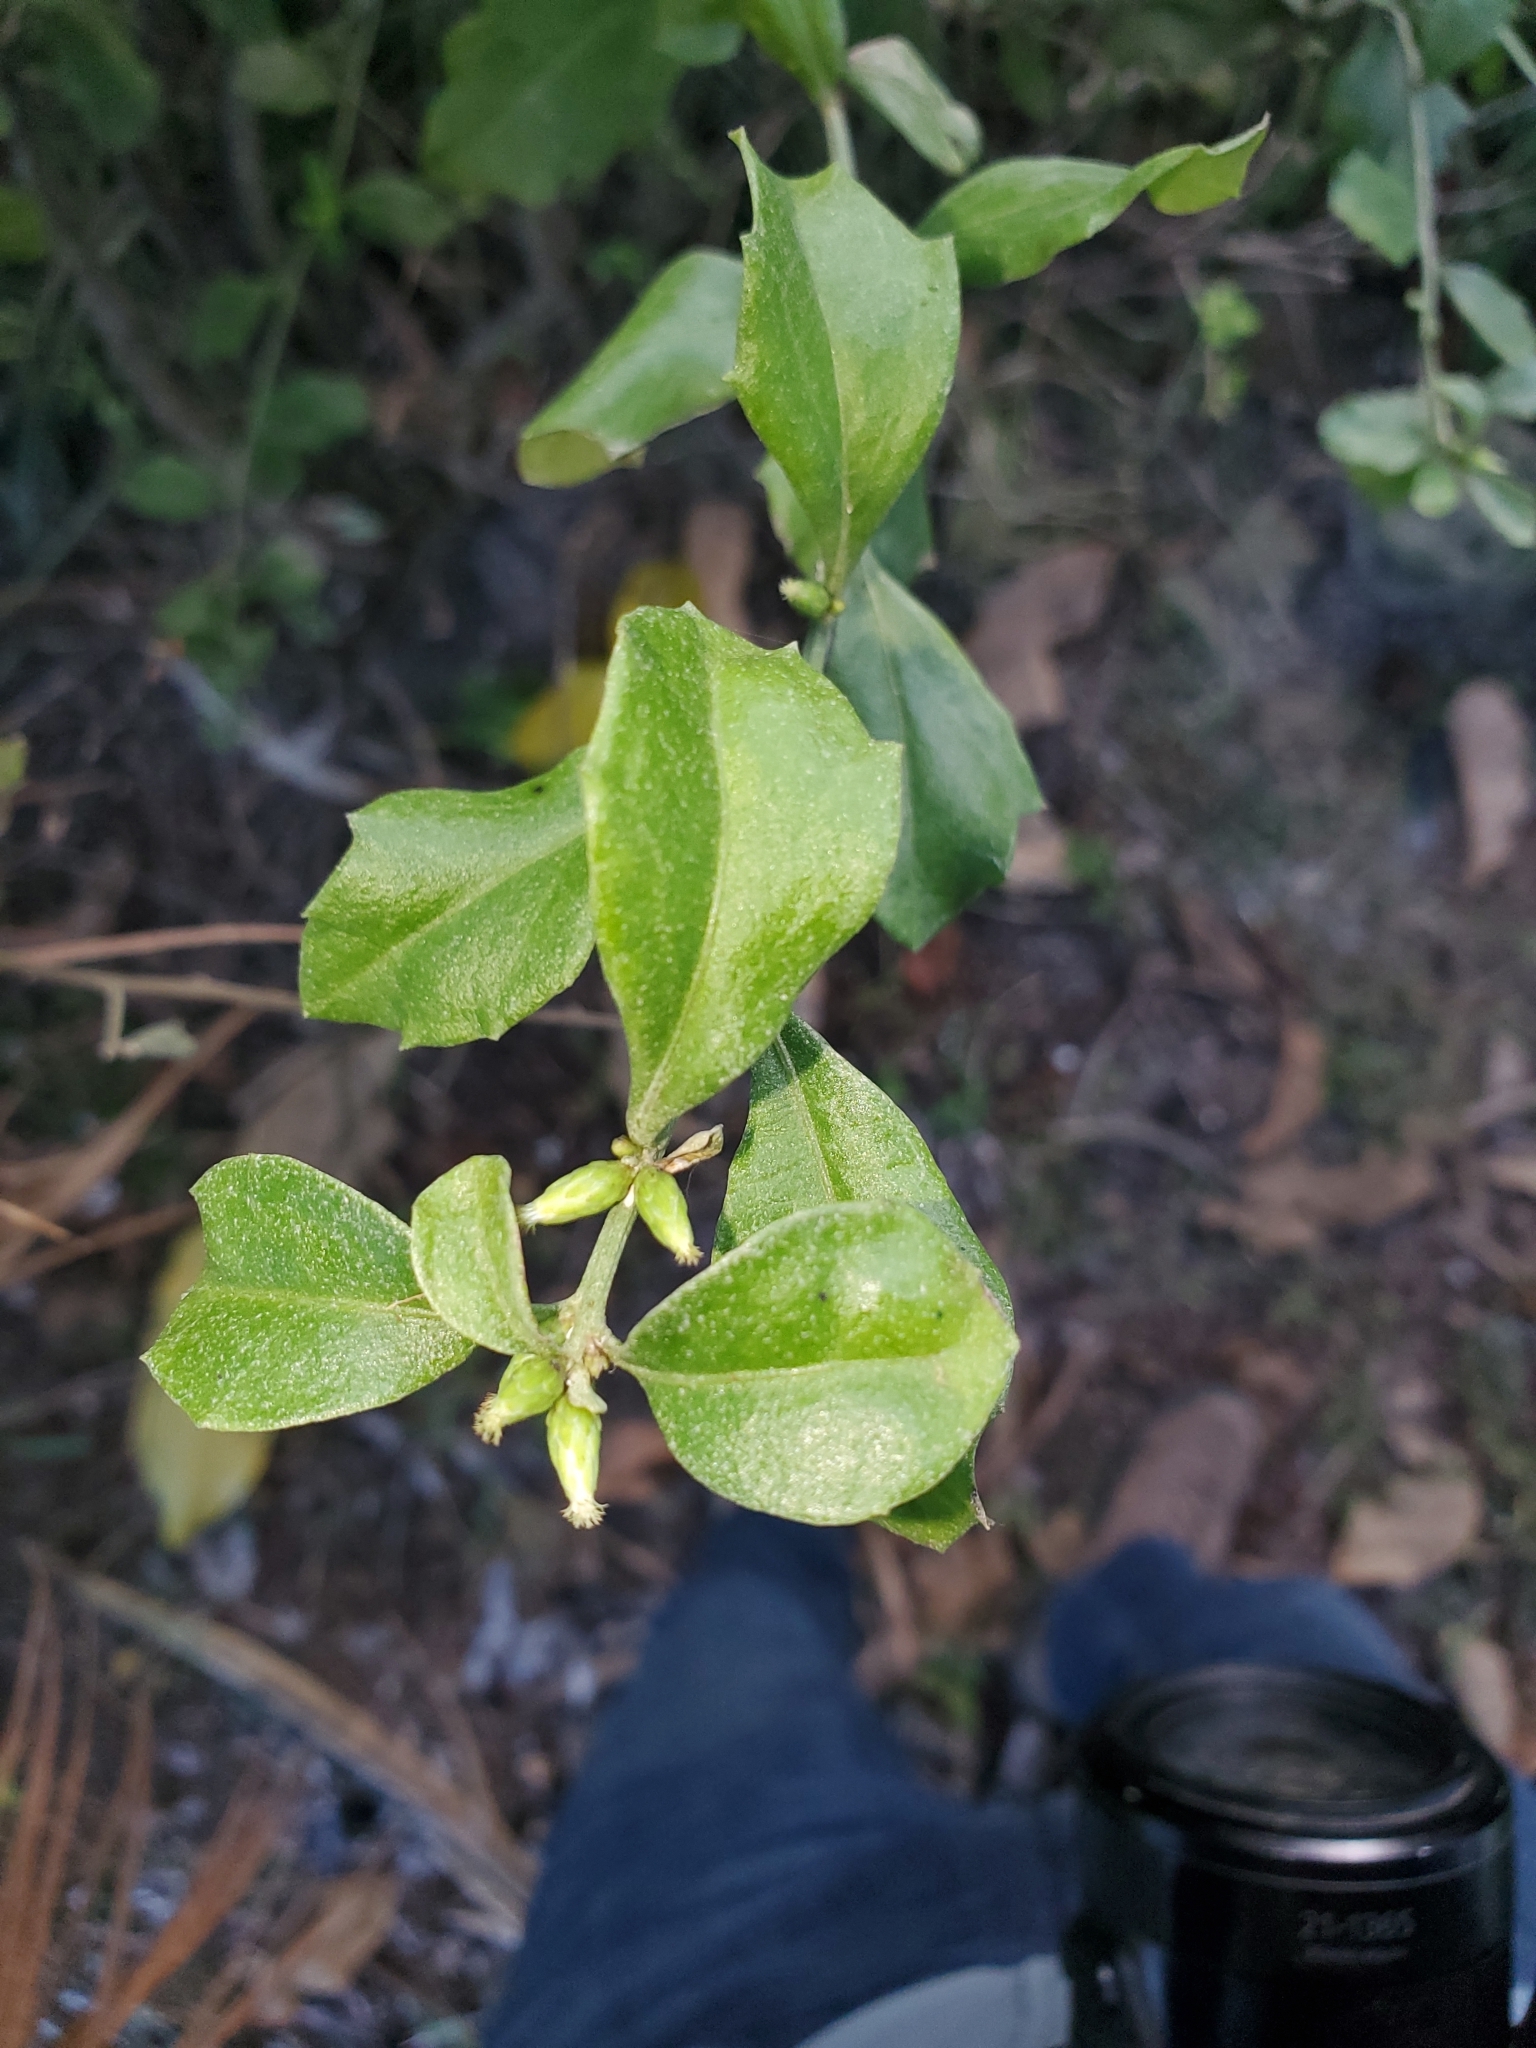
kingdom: Plantae
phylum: Tracheophyta
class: Magnoliopsida
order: Asterales
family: Asteraceae
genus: Baccharis
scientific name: Baccharis halimifolia
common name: Eastern baccharis
